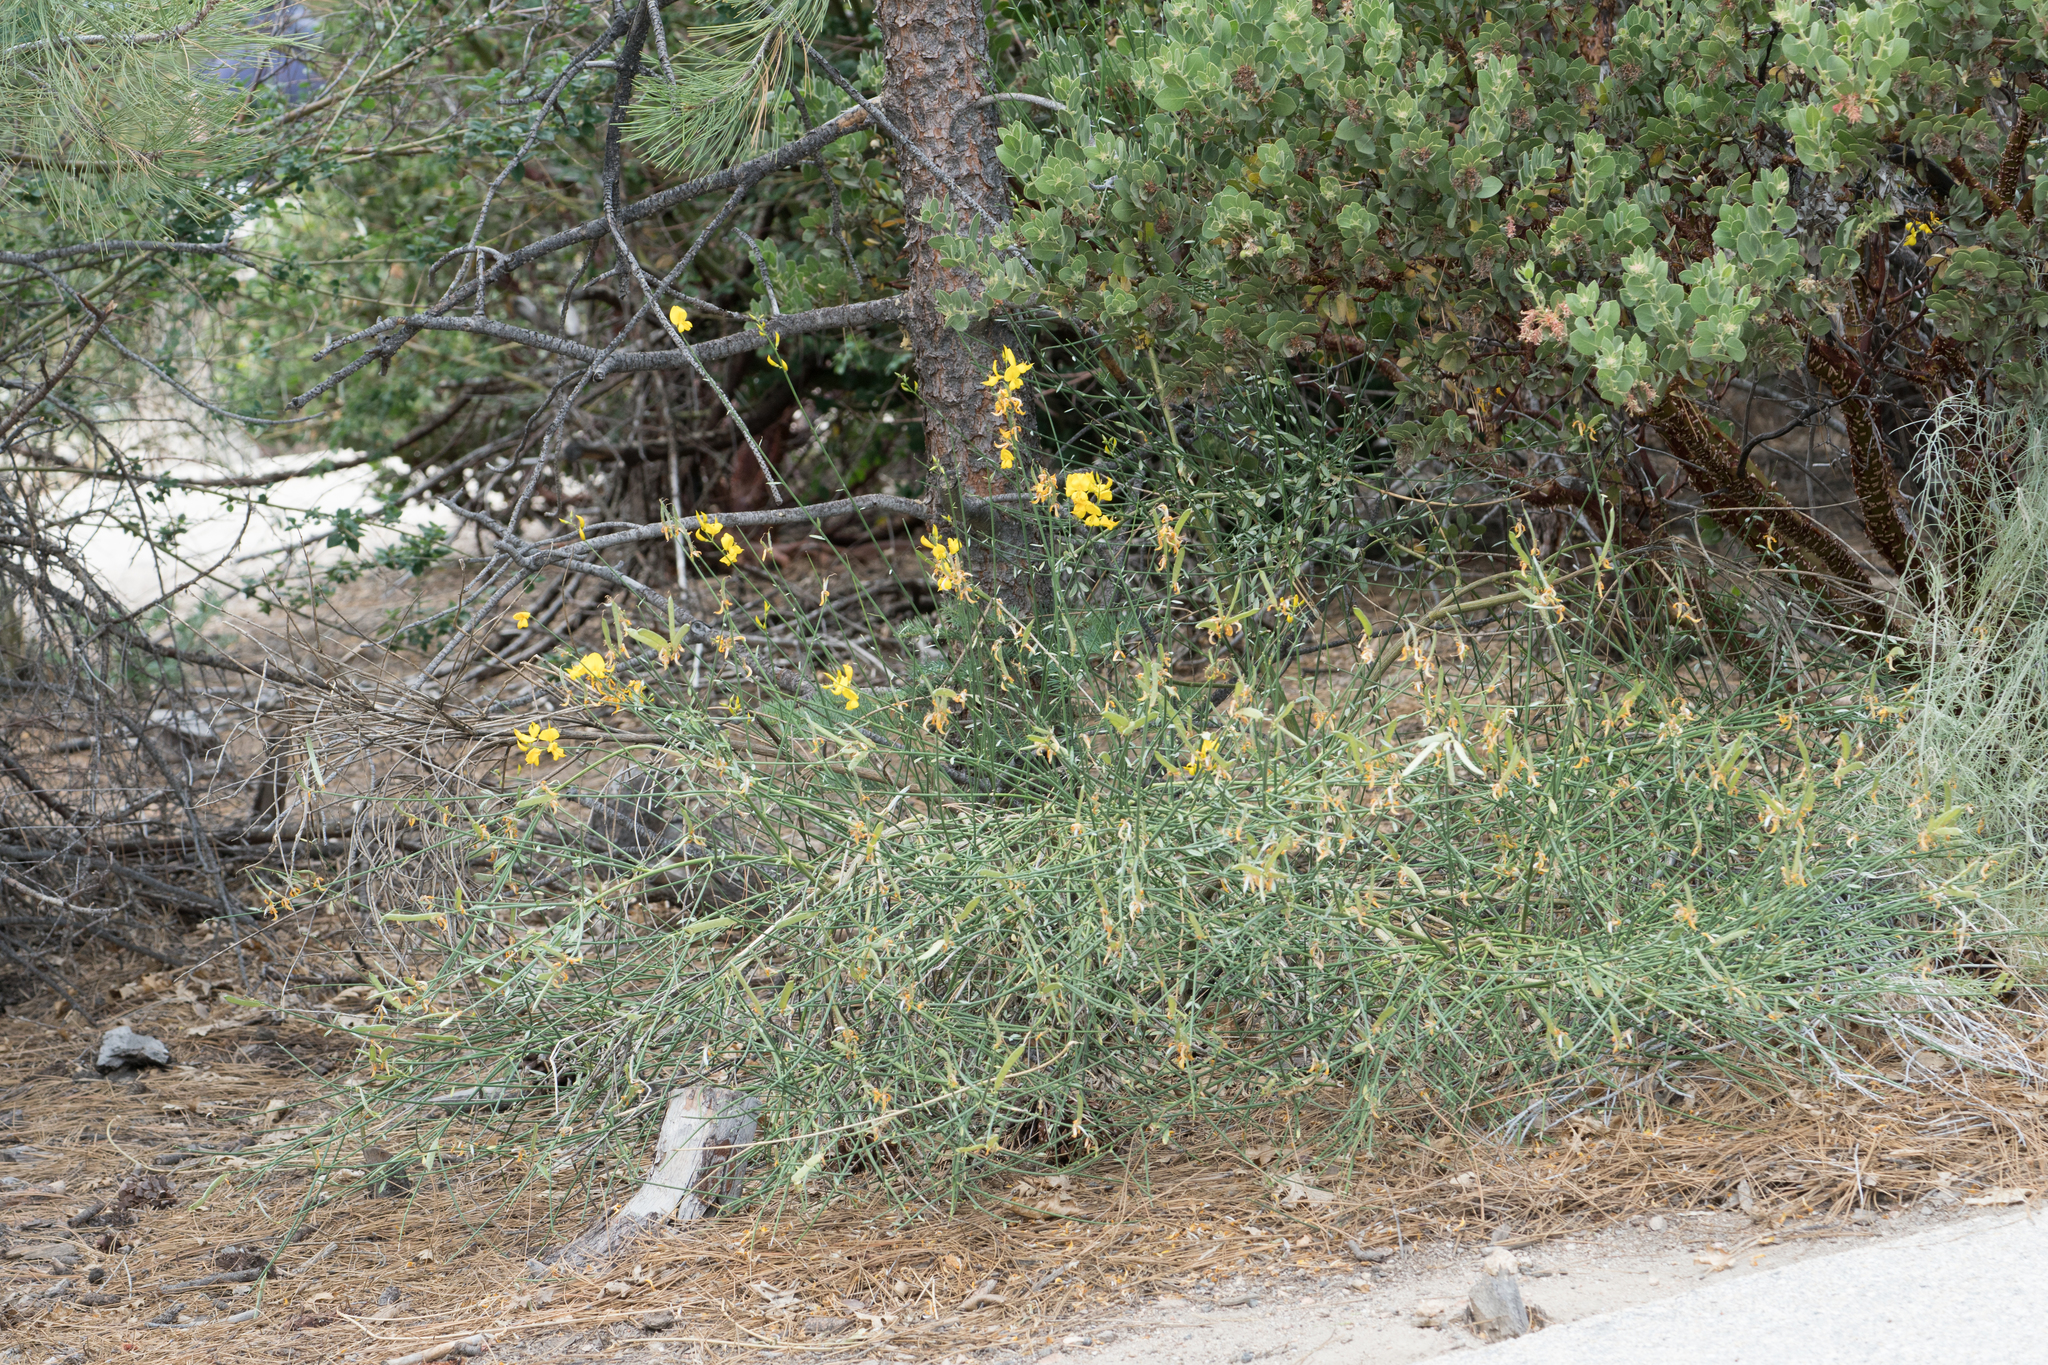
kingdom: Plantae
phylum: Tracheophyta
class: Magnoliopsida
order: Fabales
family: Fabaceae
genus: Spartium
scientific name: Spartium junceum
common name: Spanish broom
